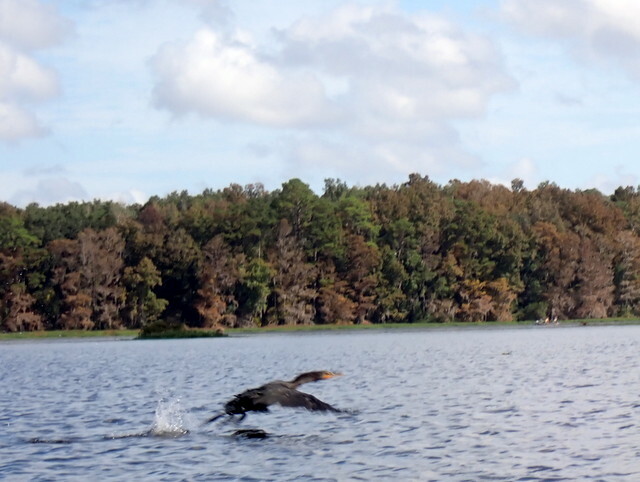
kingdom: Animalia
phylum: Chordata
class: Aves
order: Suliformes
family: Phalacrocoracidae
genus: Phalacrocorax
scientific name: Phalacrocorax auritus
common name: Double-crested cormorant
